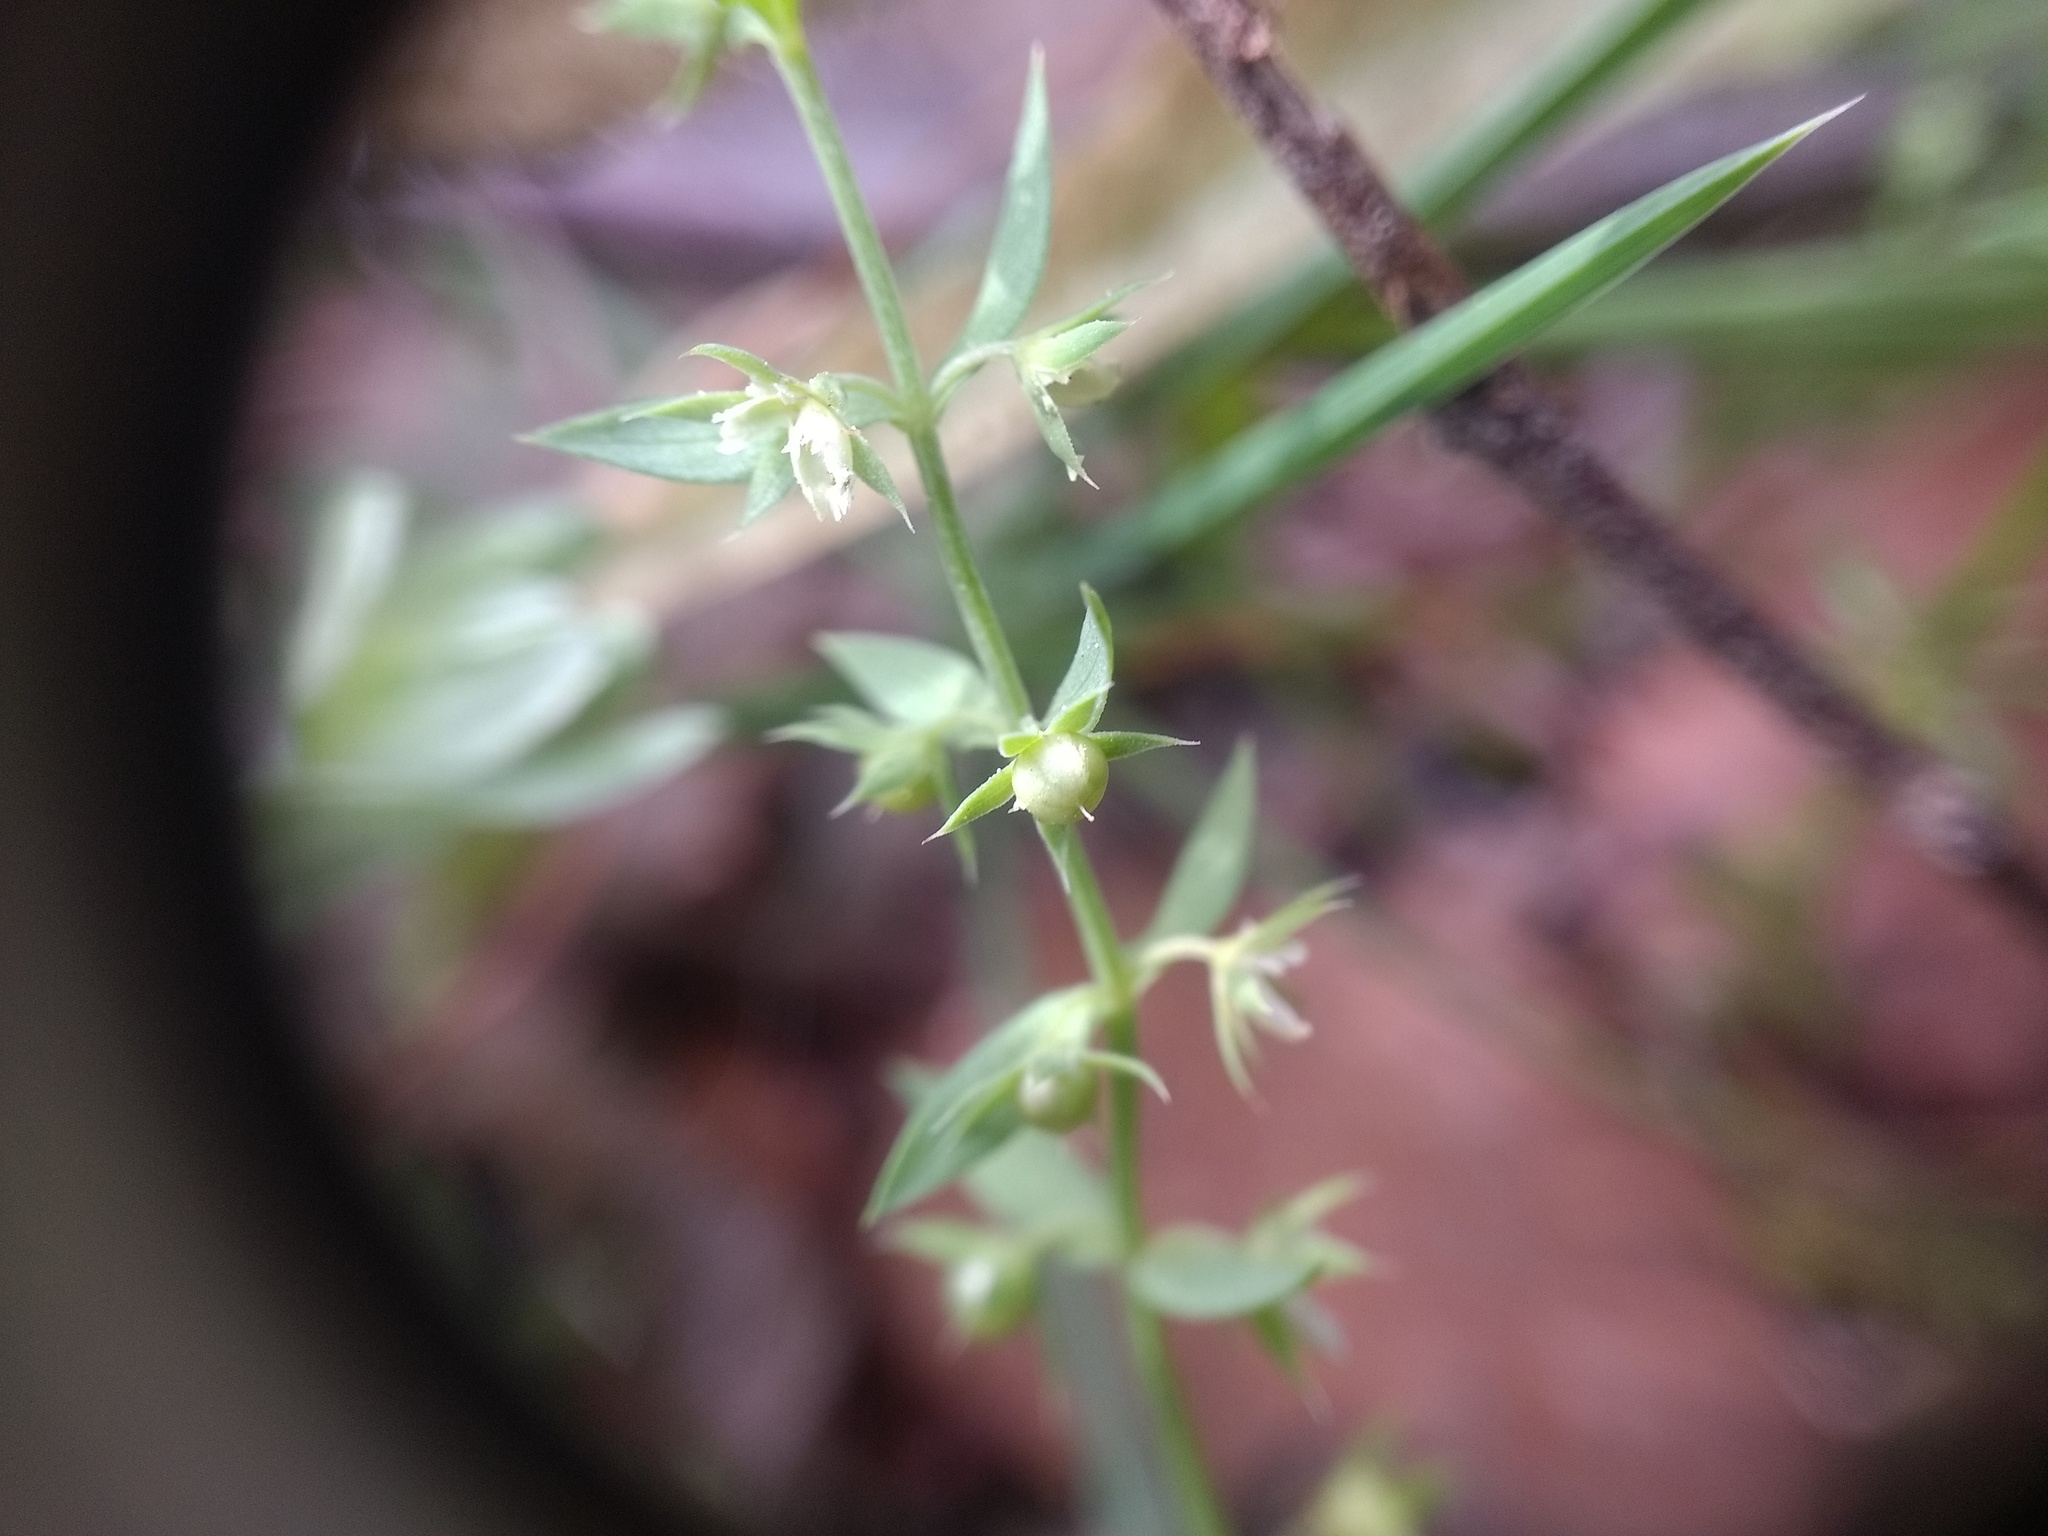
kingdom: Plantae
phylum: Tracheophyta
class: Magnoliopsida
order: Ericales
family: Primulaceae
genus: Lysimachia
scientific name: Lysimachia linum-stellatum
